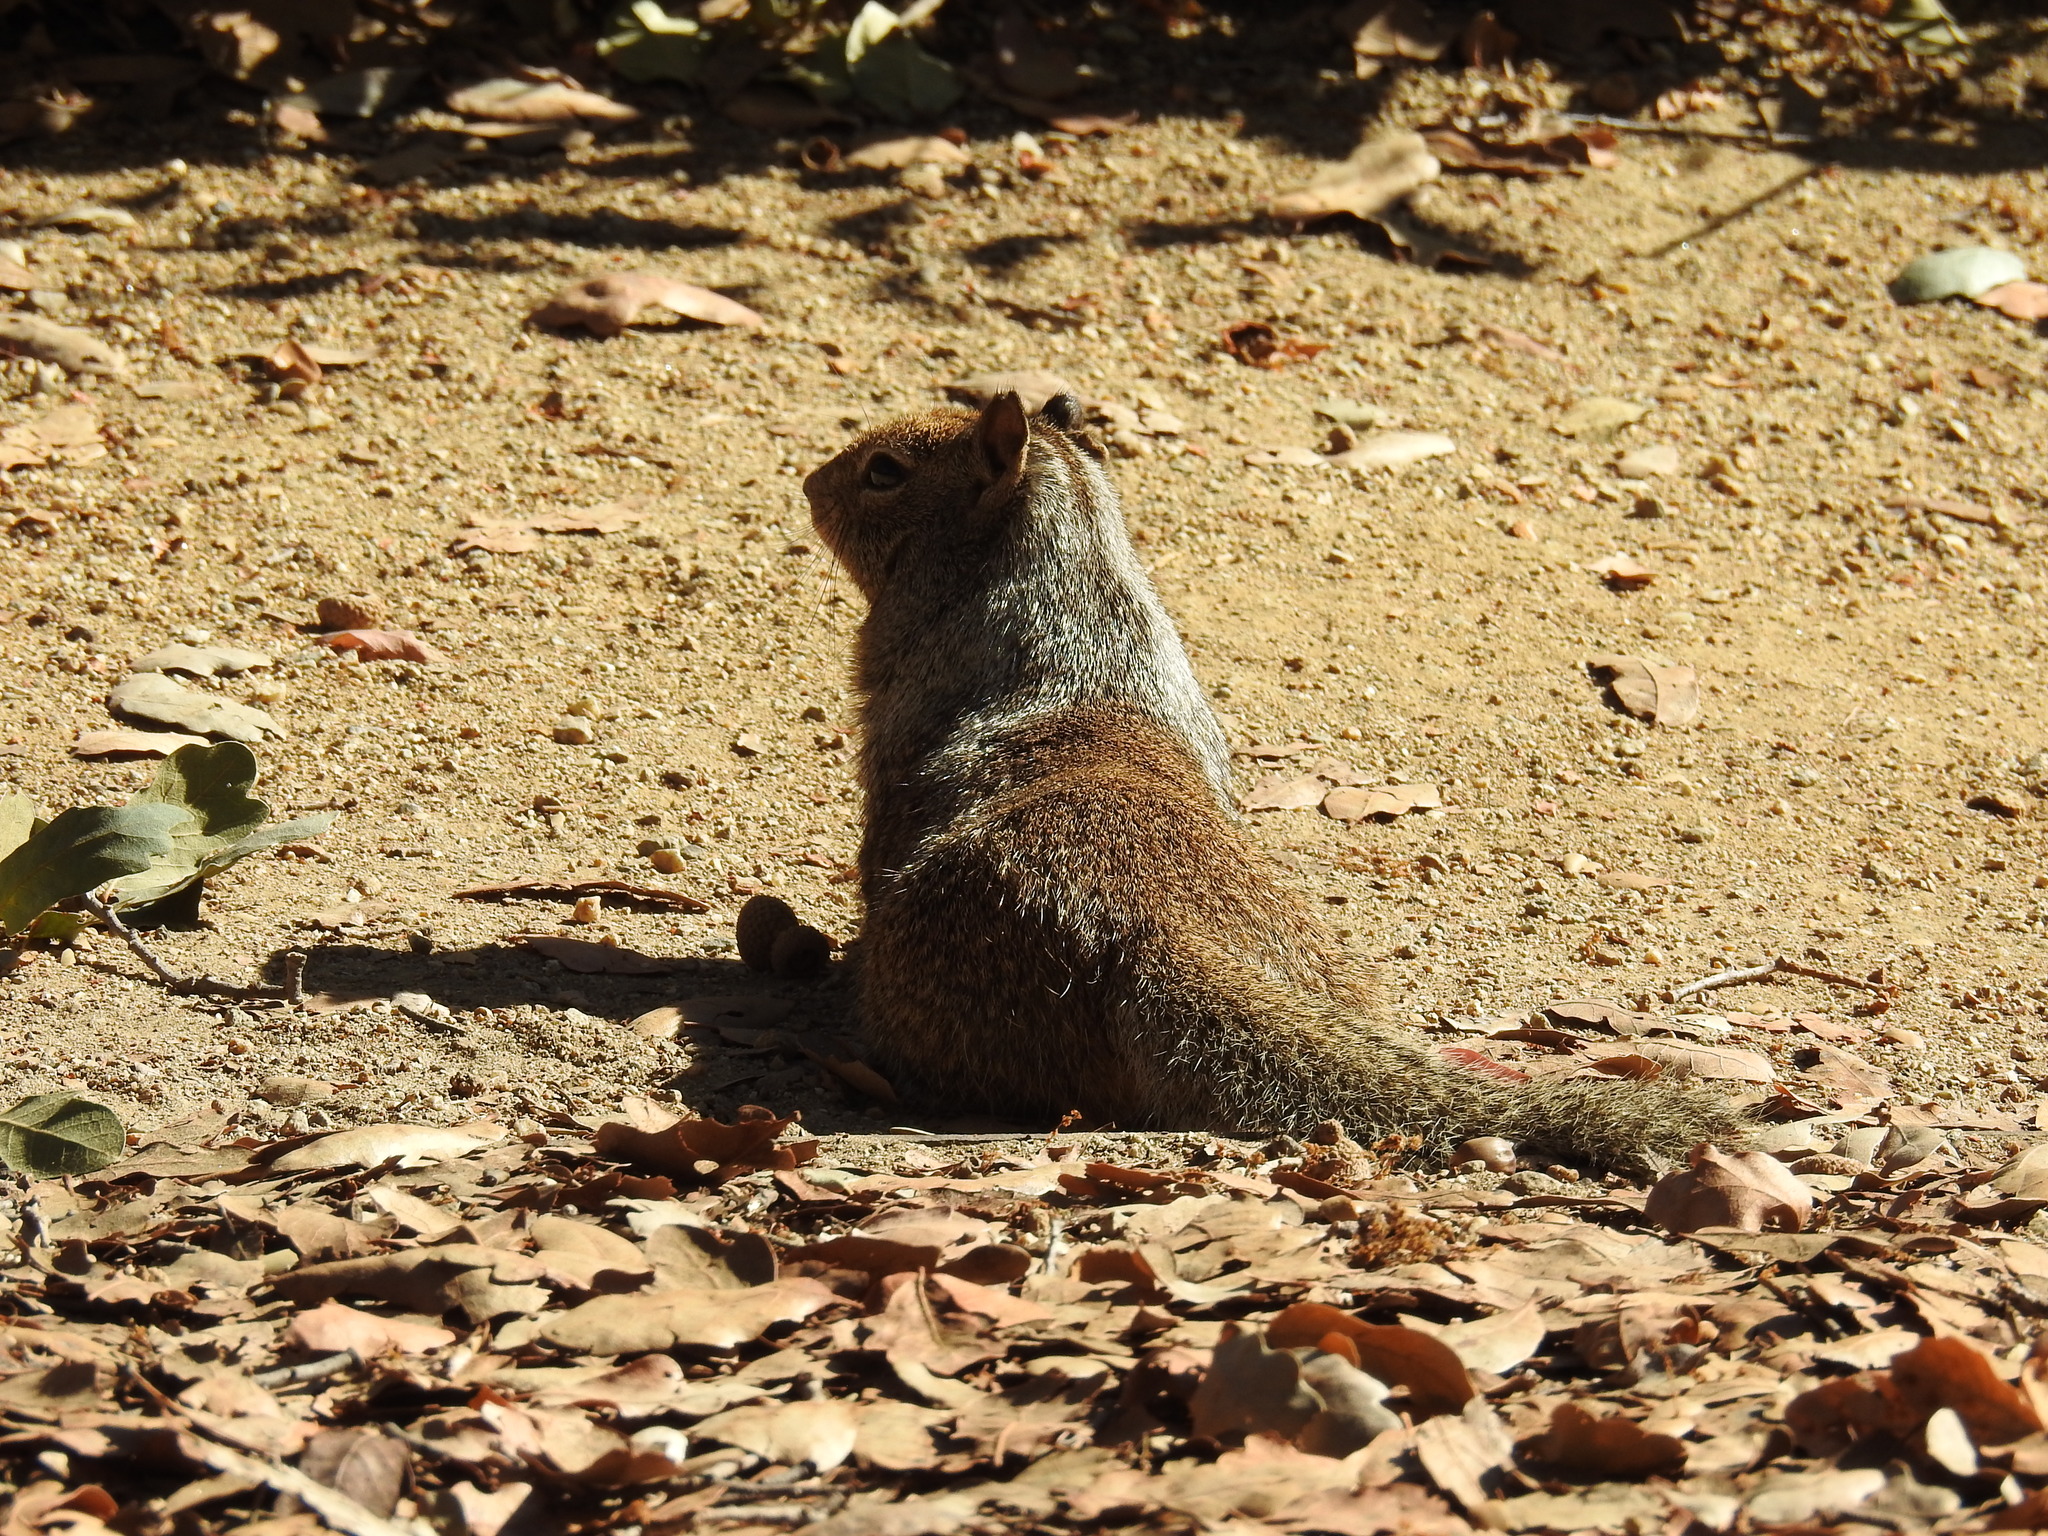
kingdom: Animalia
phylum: Chordata
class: Mammalia
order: Rodentia
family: Sciuridae
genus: Otospermophilus
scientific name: Otospermophilus beecheyi
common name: California ground squirrel
